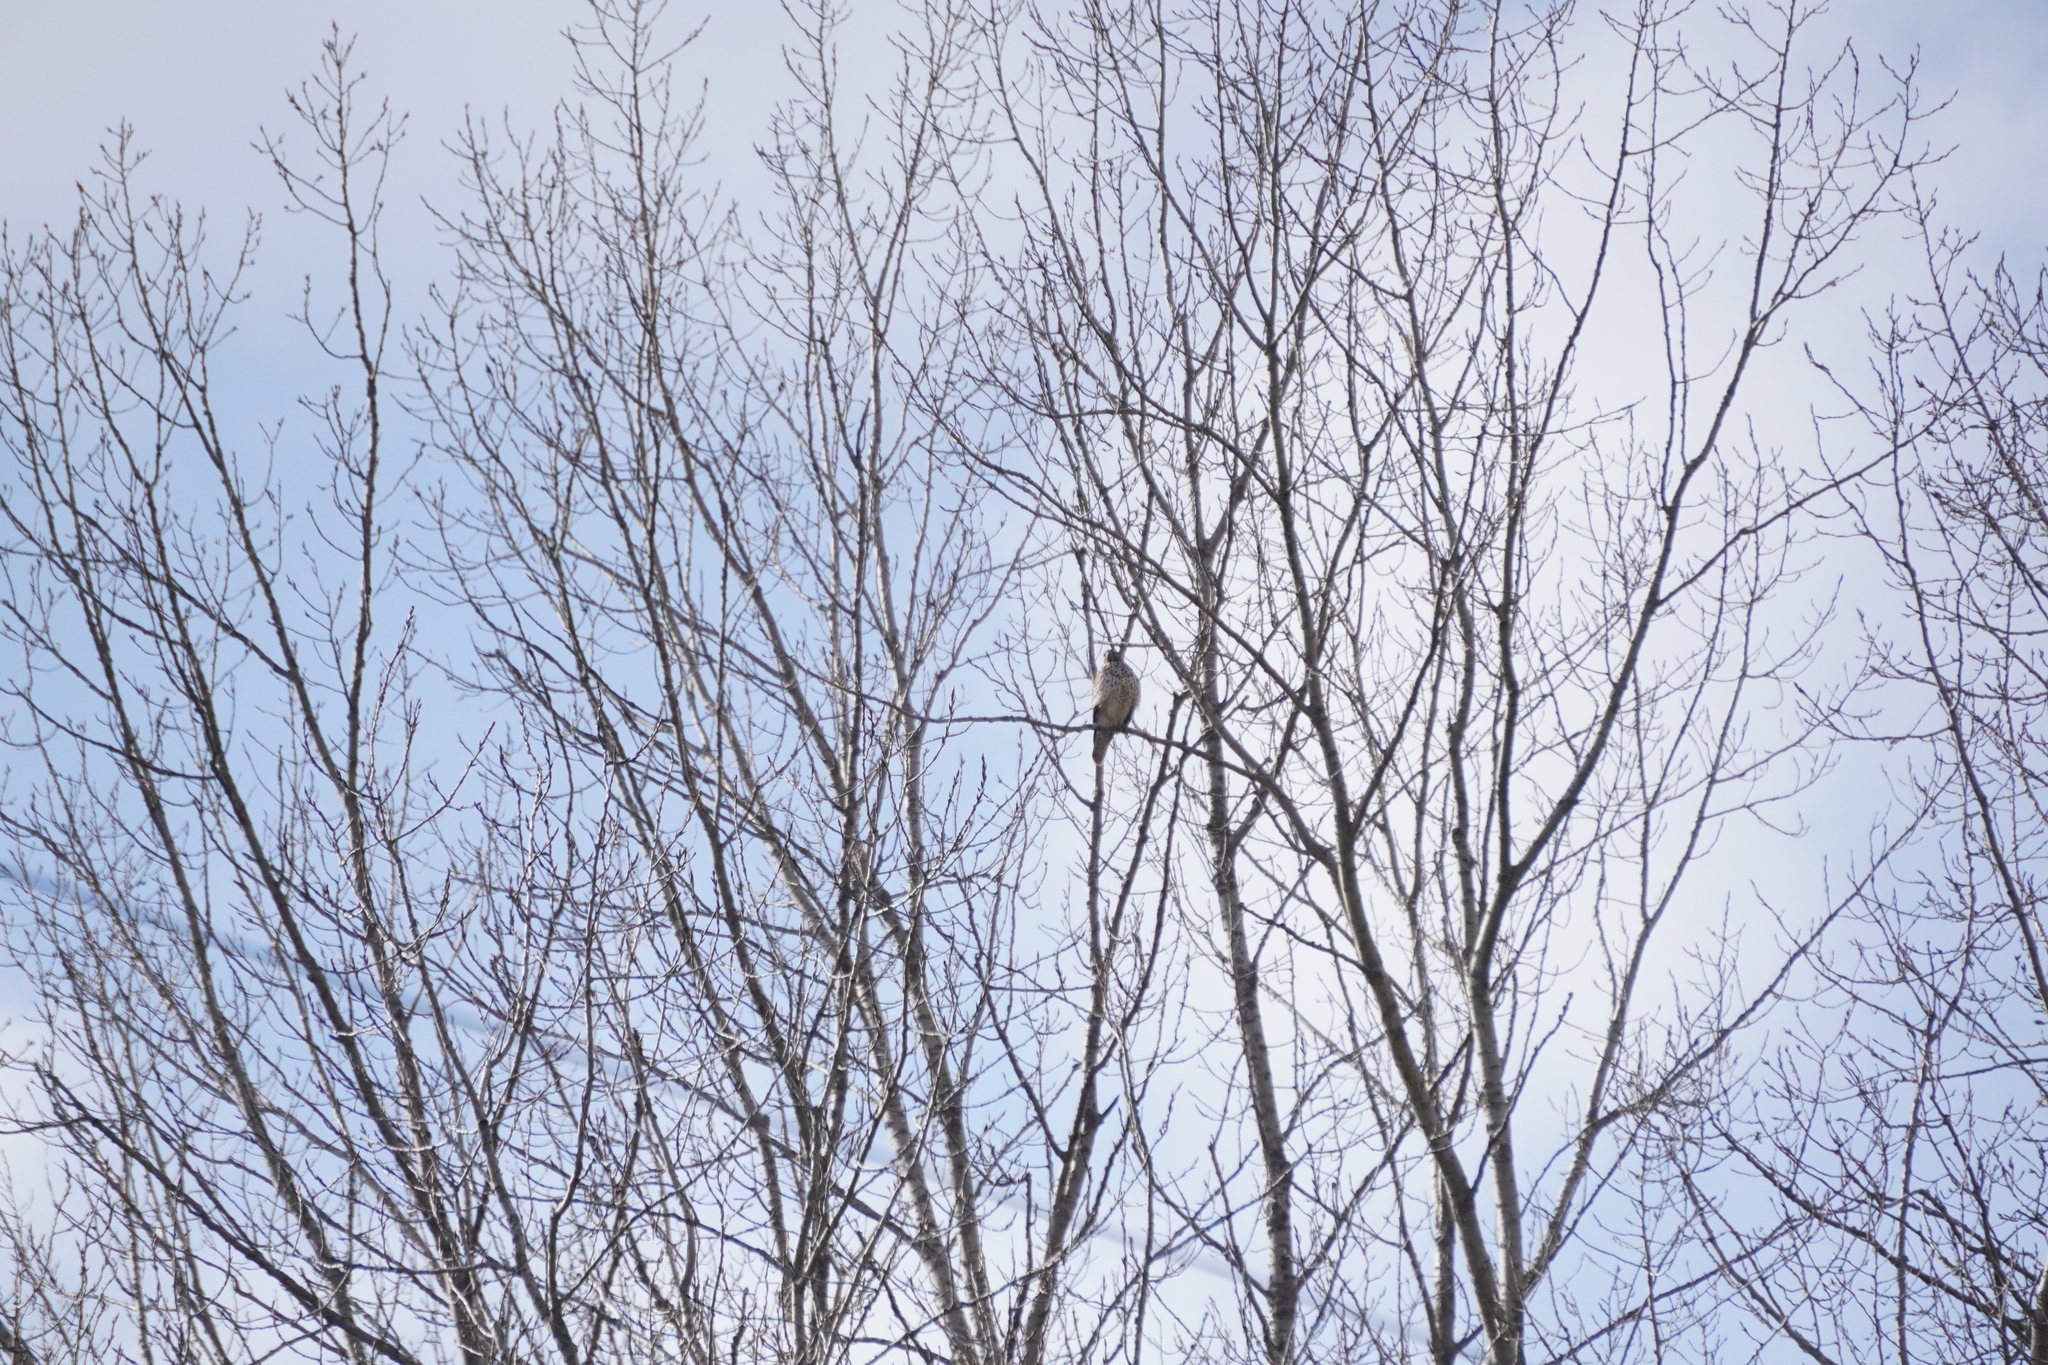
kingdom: Animalia
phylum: Chordata
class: Aves
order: Accipitriformes
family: Accipitridae
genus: Buteo
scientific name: Buteo lineatus
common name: Red-shouldered hawk
